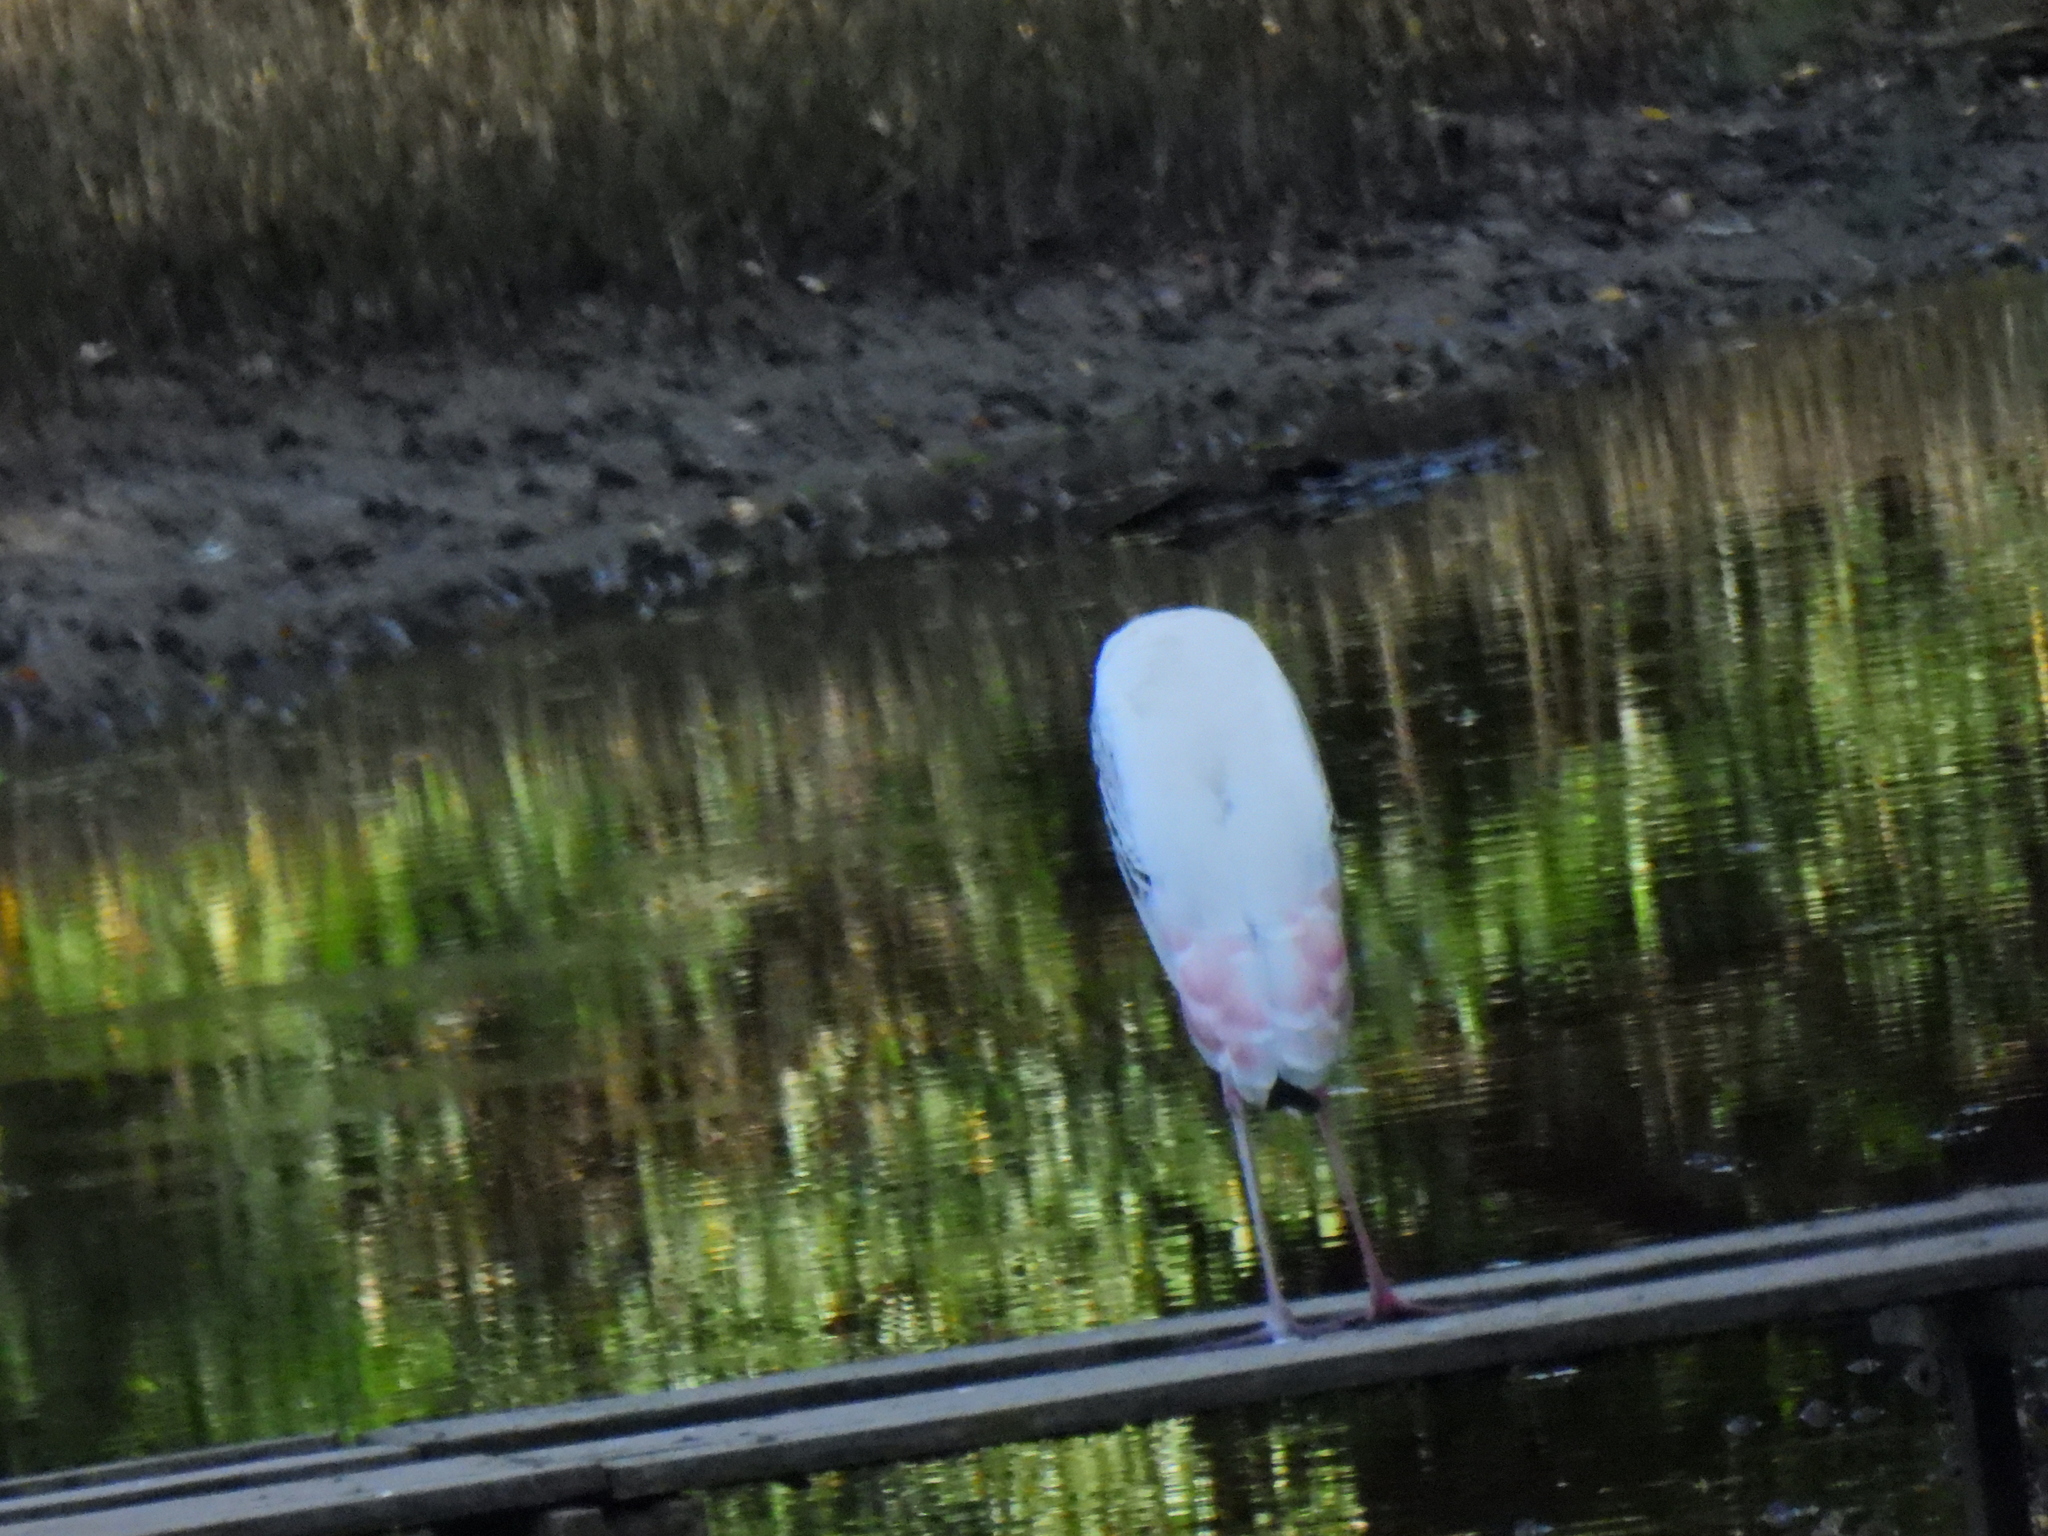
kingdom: Animalia
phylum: Chordata
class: Aves
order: Ciconiiformes
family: Ciconiidae
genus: Mycteria
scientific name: Mycteria leucocephala
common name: Painted stork
